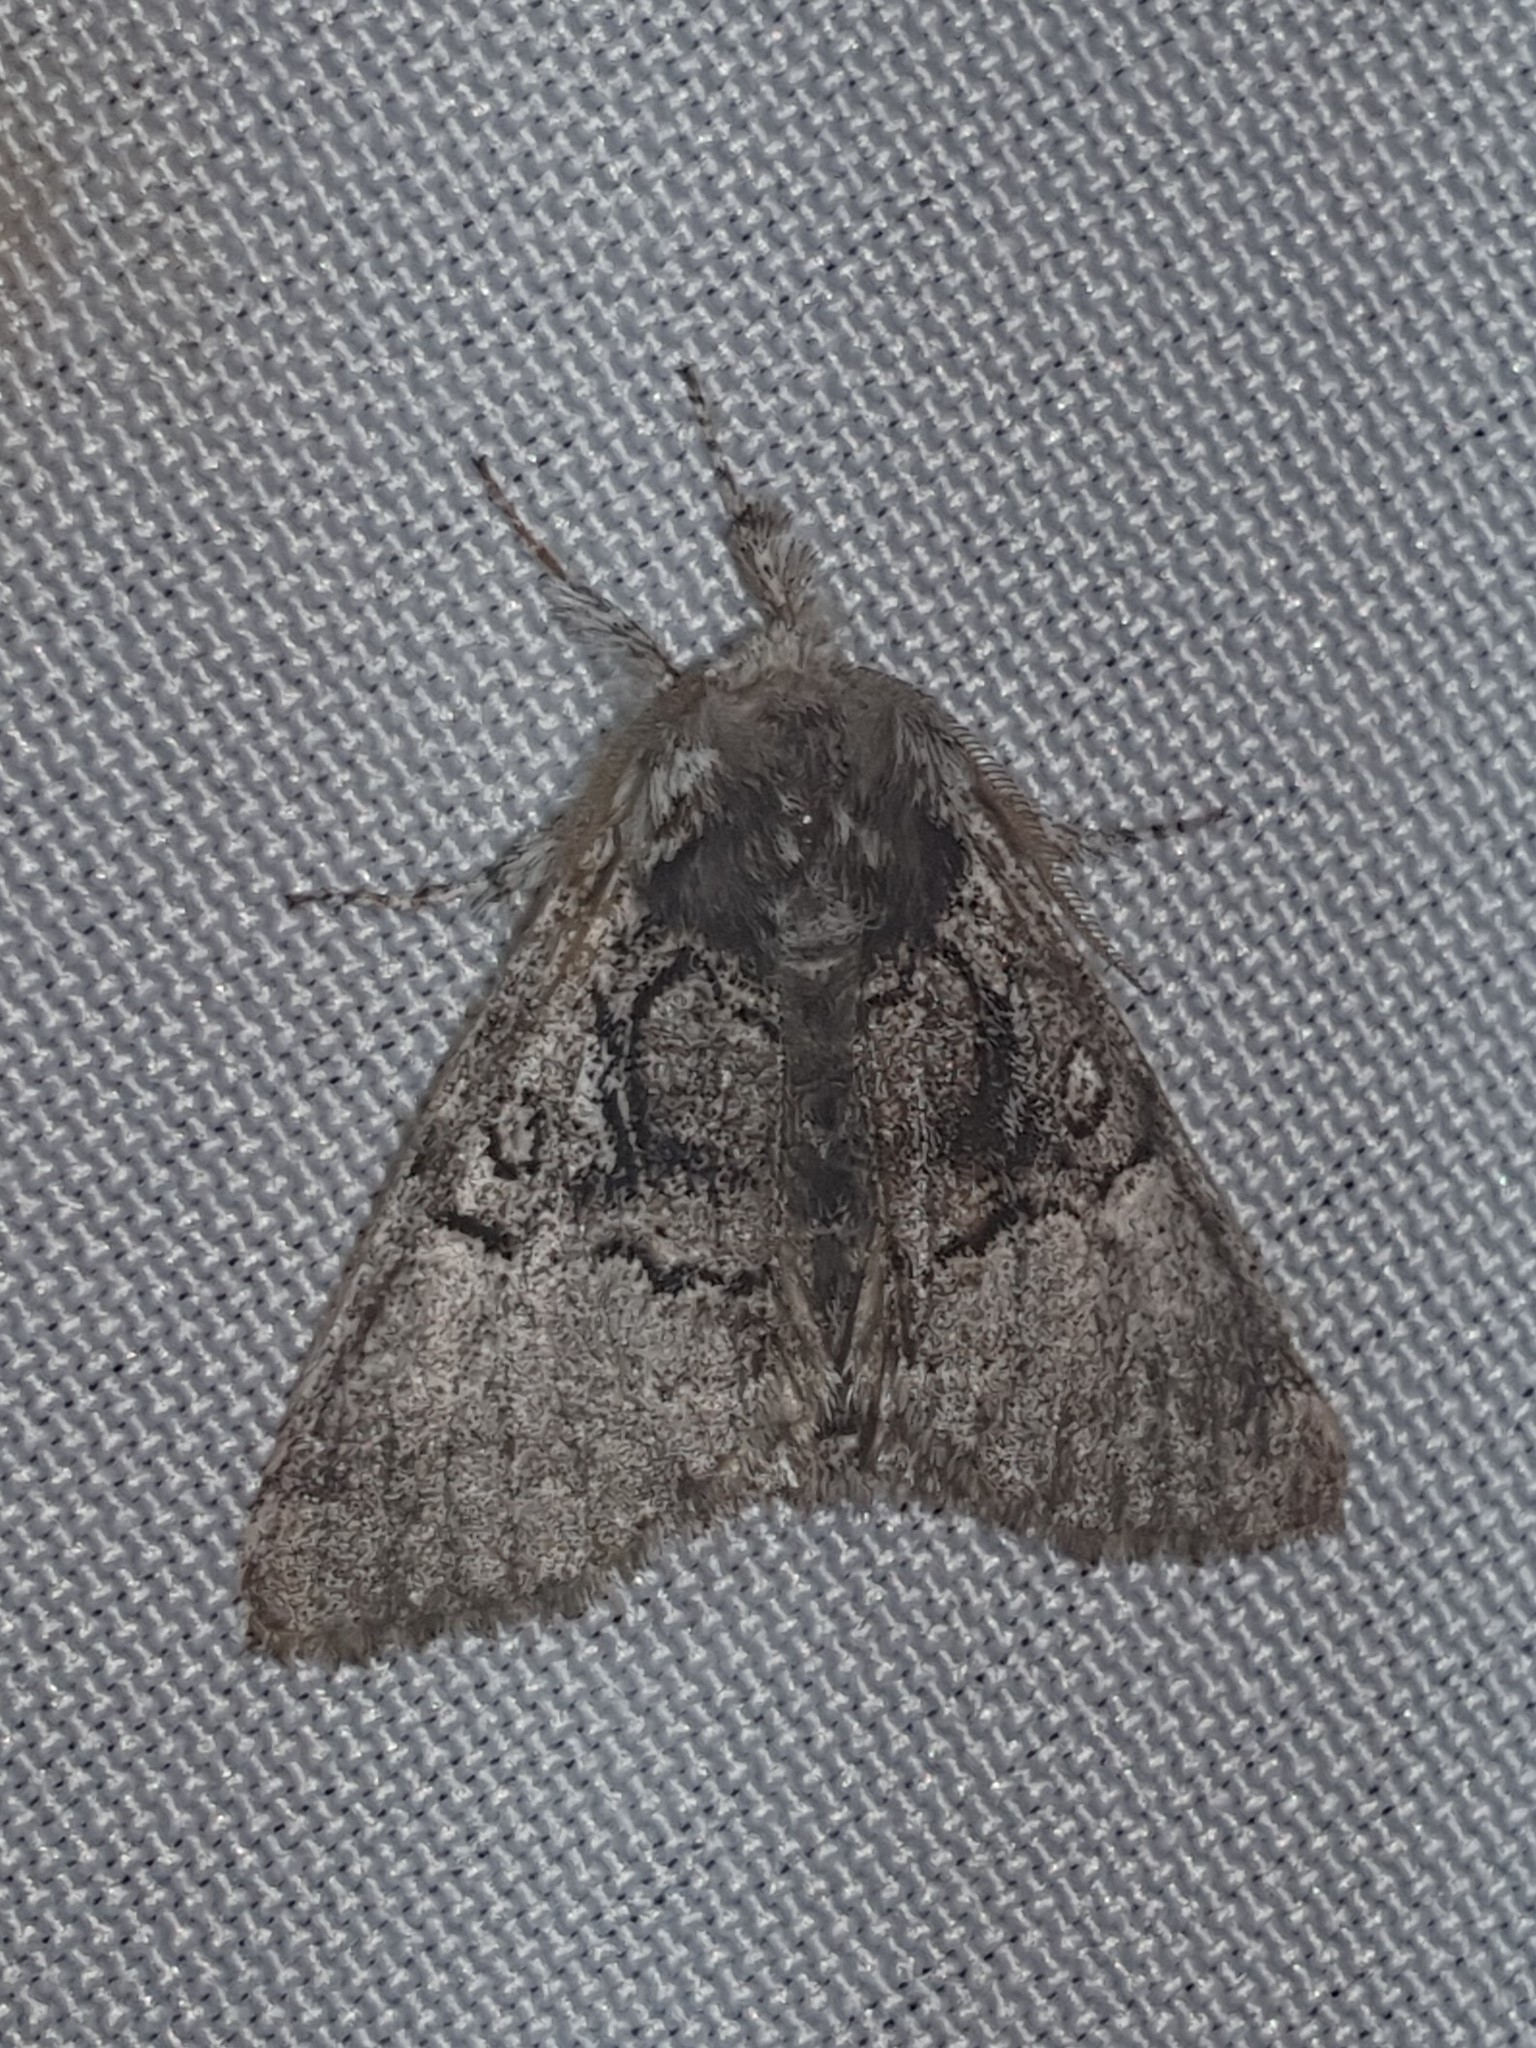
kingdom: Animalia
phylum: Arthropoda
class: Insecta
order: Lepidoptera
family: Noctuidae
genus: Colocasia
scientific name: Colocasia coryli
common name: Nut-tree tussock
